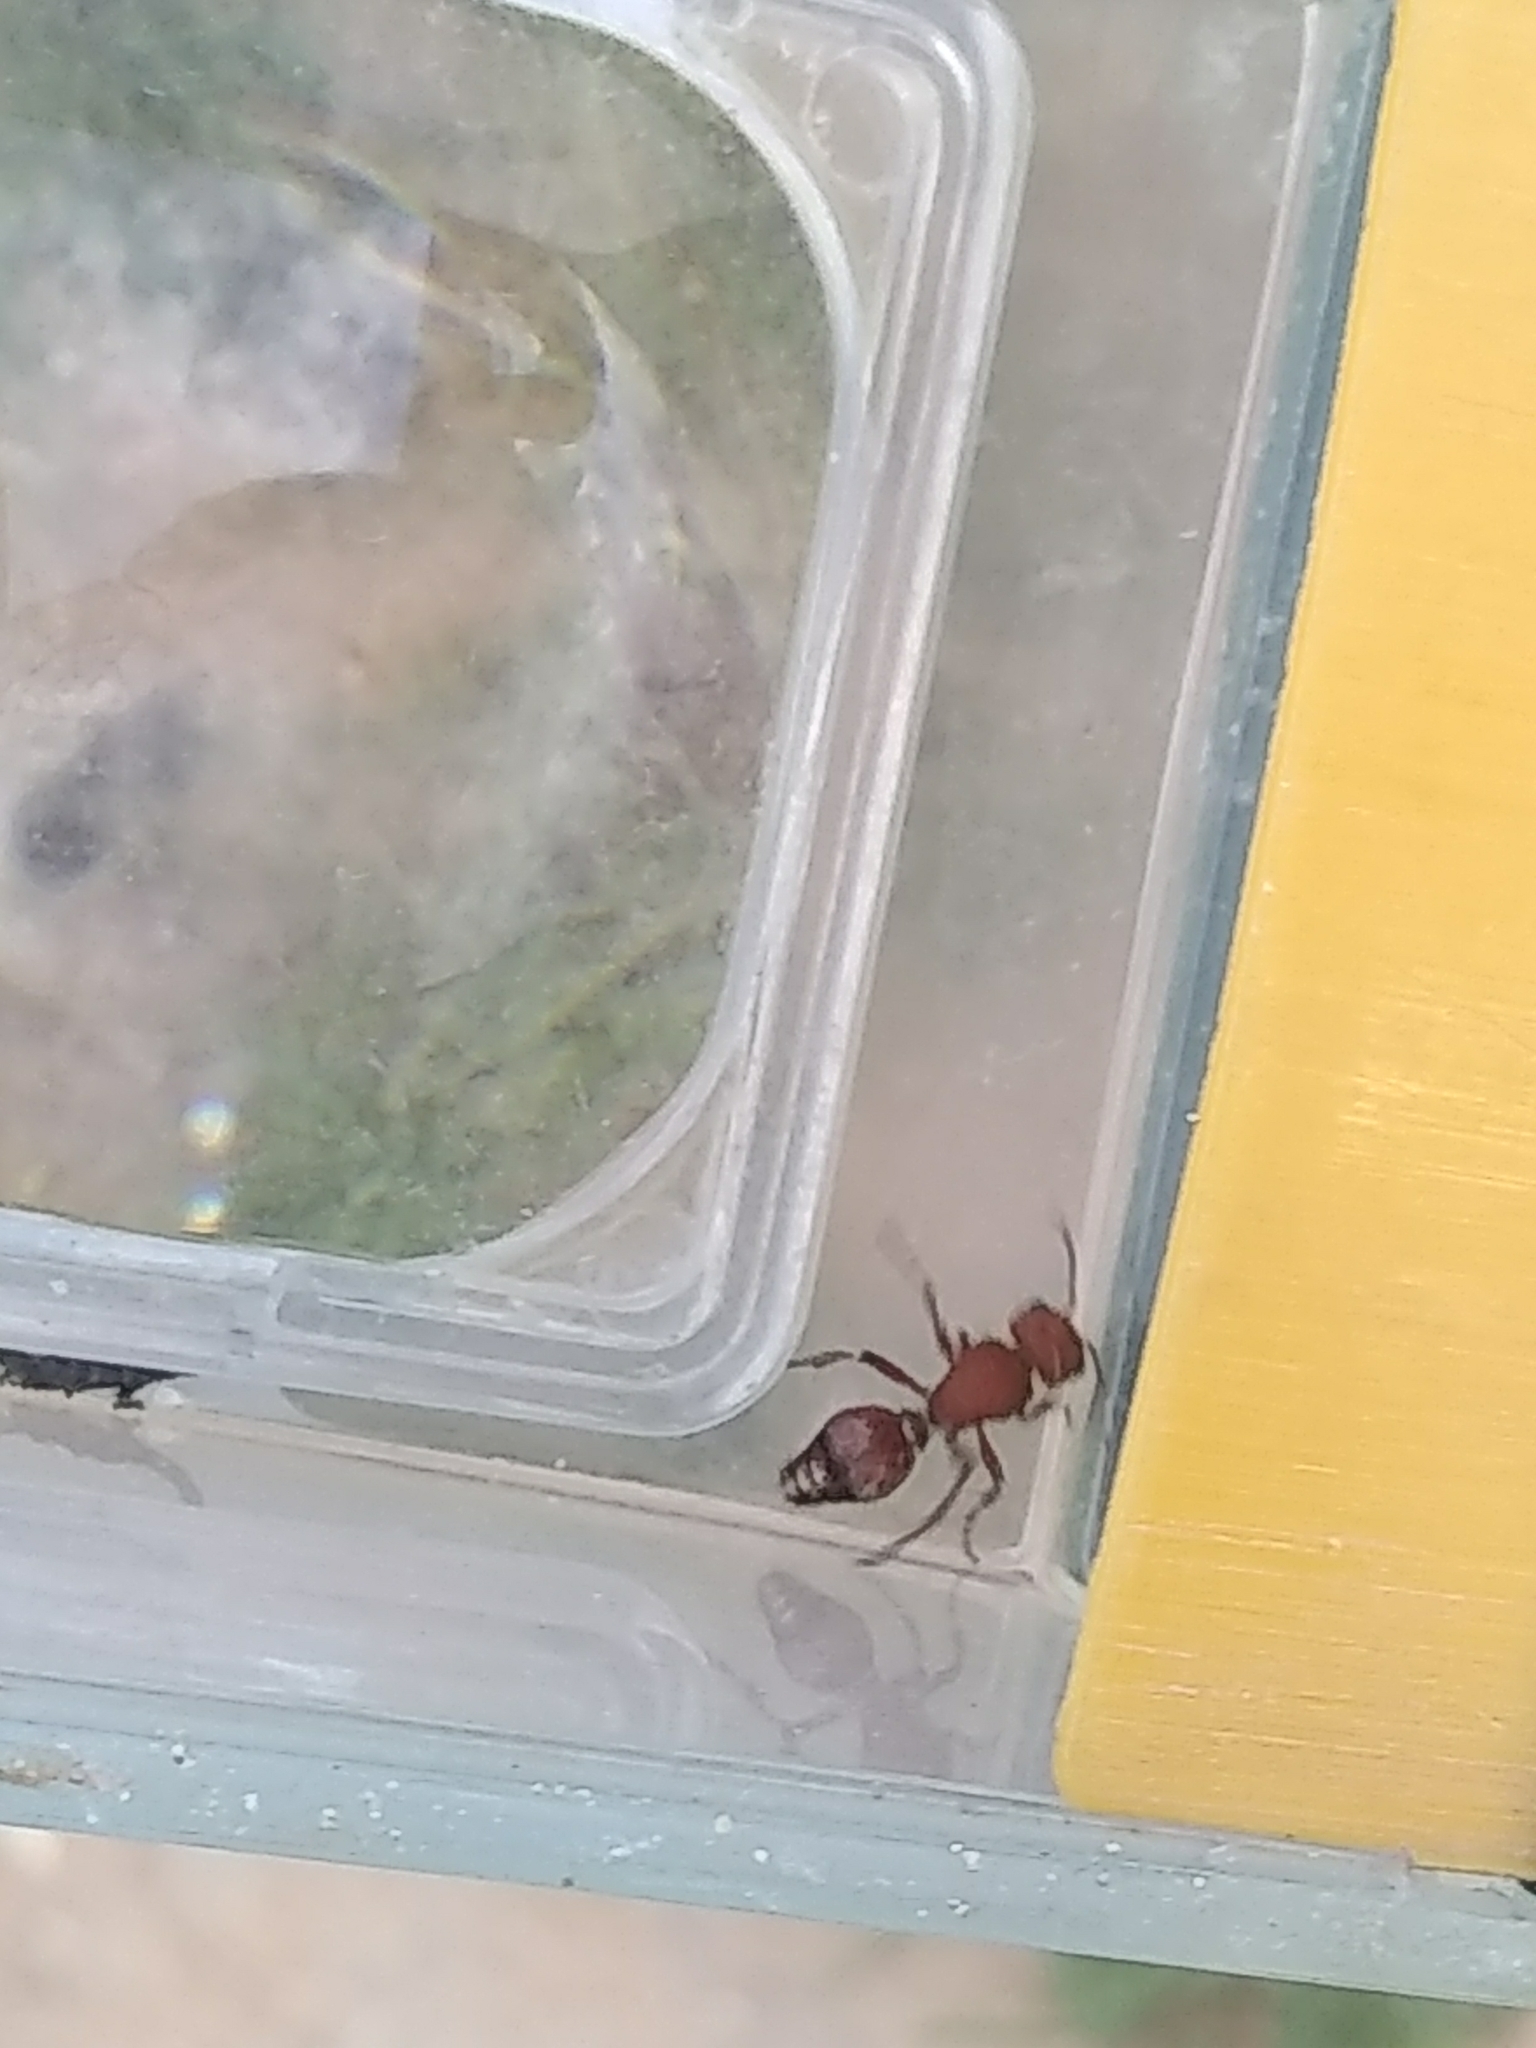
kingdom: Animalia
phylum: Arthropoda
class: Insecta
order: Hymenoptera
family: Mutillidae
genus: Dasymutilla
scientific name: Dasymutilla
